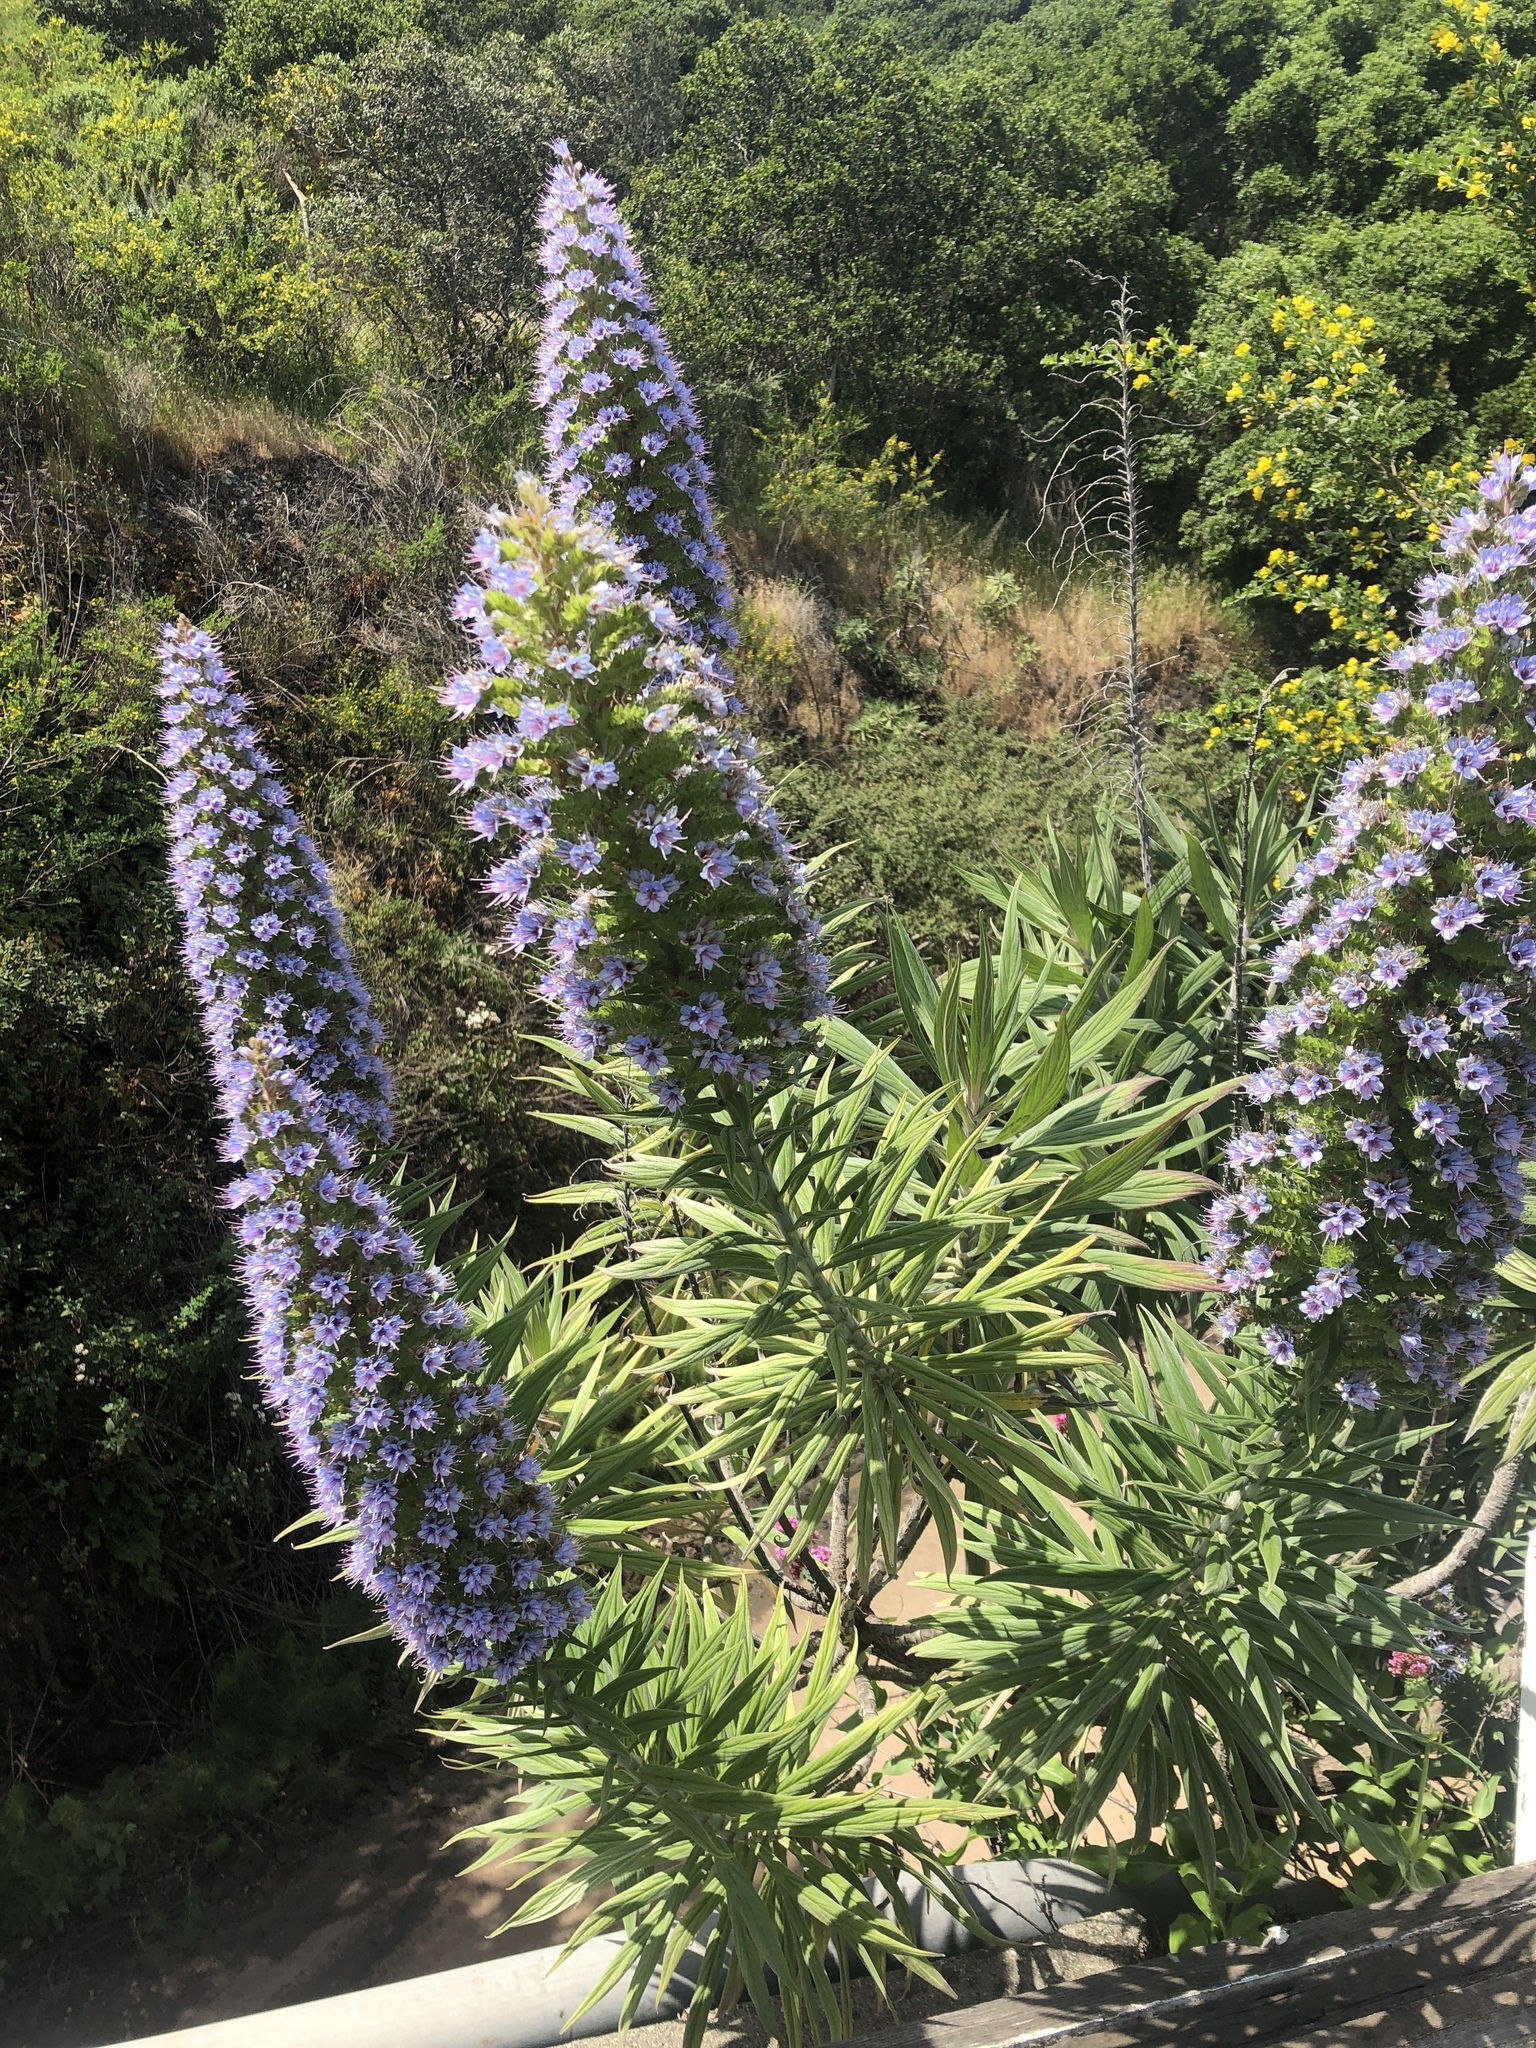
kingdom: Plantae
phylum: Tracheophyta
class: Magnoliopsida
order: Boraginales
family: Boraginaceae
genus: Echium
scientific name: Echium candicans
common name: Pride of madeira
